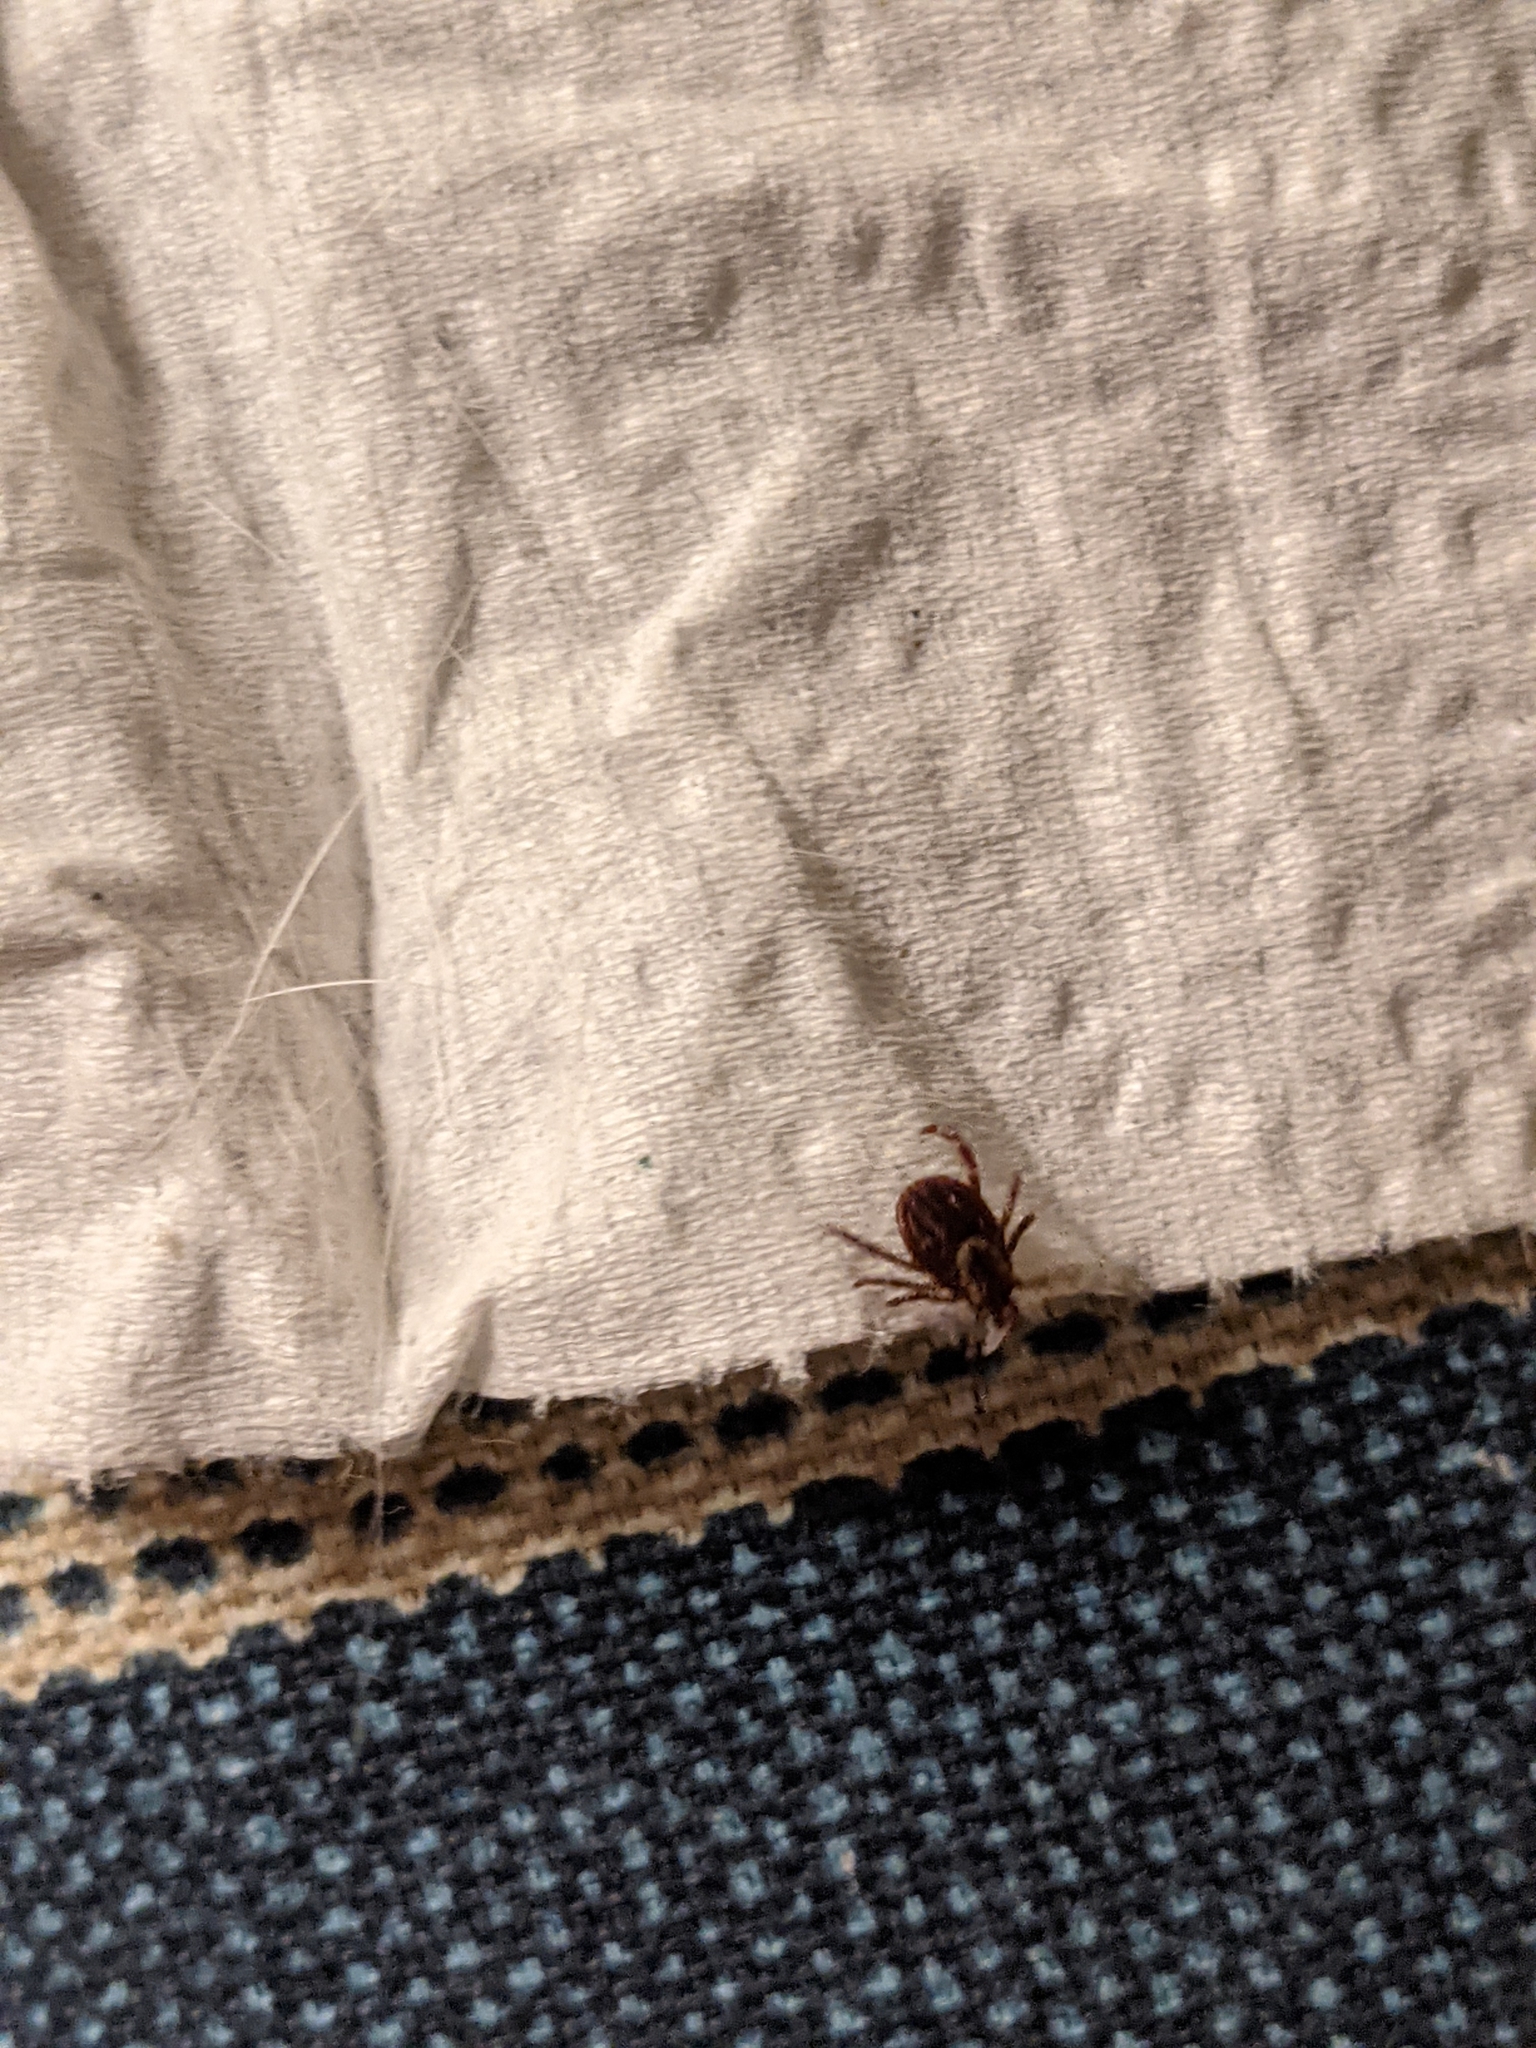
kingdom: Animalia
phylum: Arthropoda
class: Arachnida
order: Ixodida
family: Ixodidae
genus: Dermacentor
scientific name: Dermacentor variabilis
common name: American dog tick
